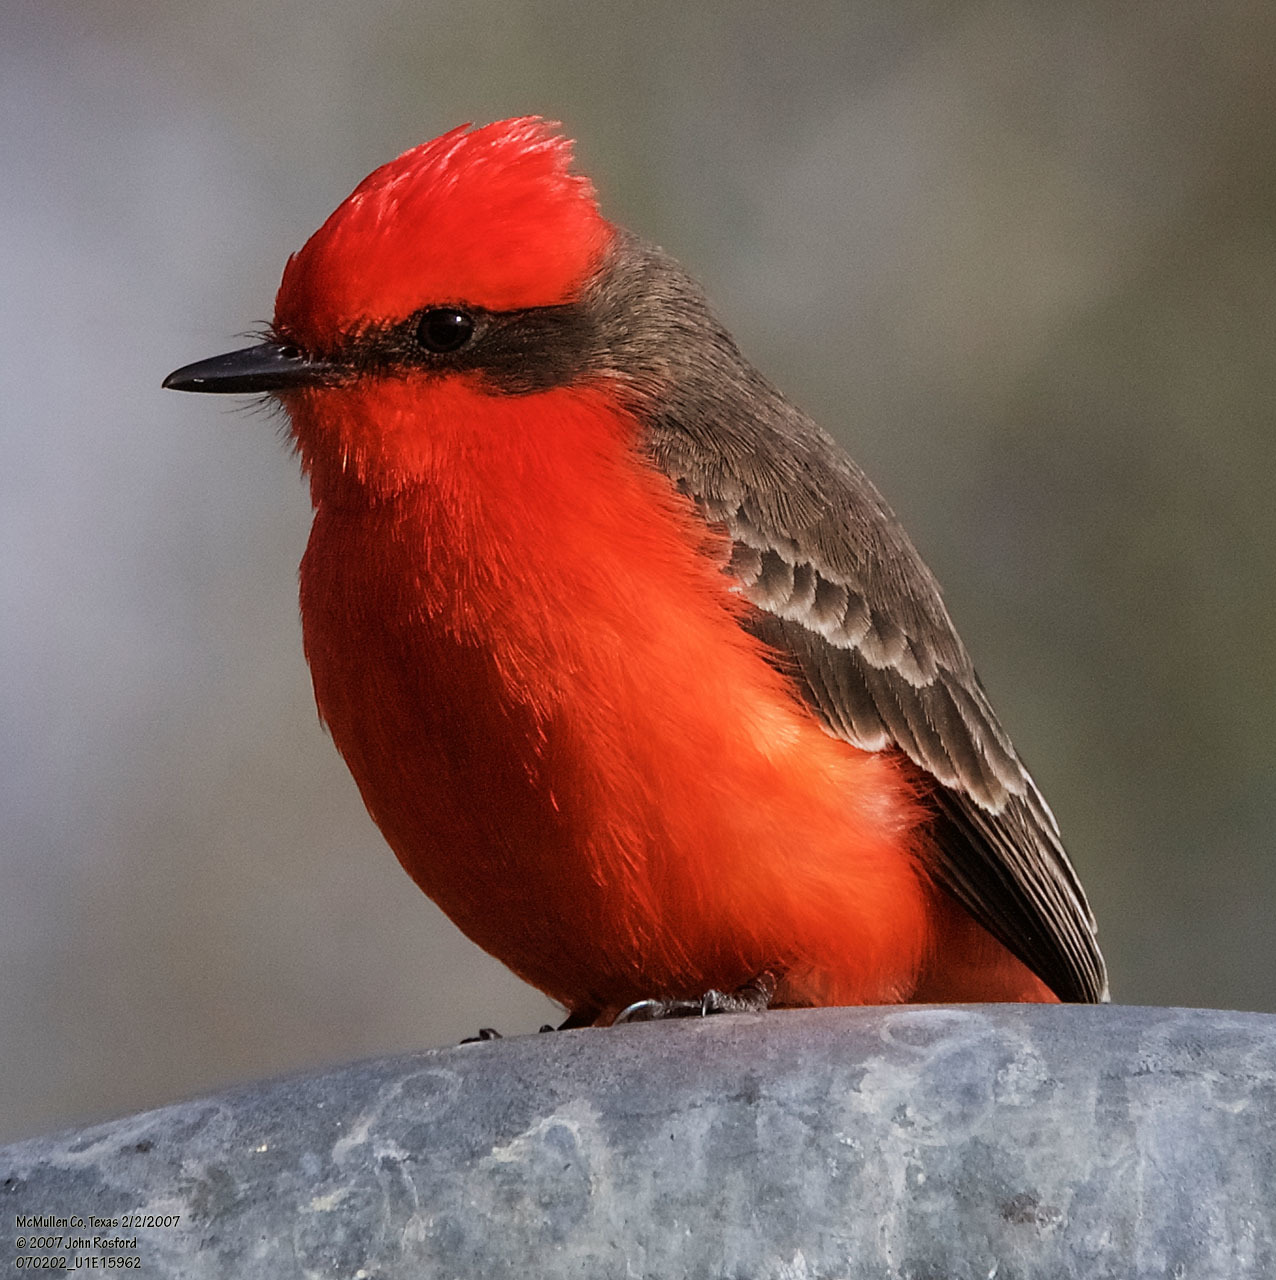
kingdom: Animalia
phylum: Chordata
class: Aves
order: Passeriformes
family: Tyrannidae
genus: Pyrocephalus
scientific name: Pyrocephalus rubinus
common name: Vermilion flycatcher
